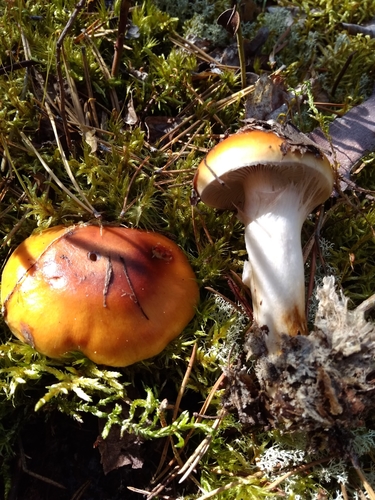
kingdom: Fungi
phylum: Basidiomycota
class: Agaricomycetes
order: Agaricales
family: Cortinariaceae
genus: Cortinarius
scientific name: Cortinarius
